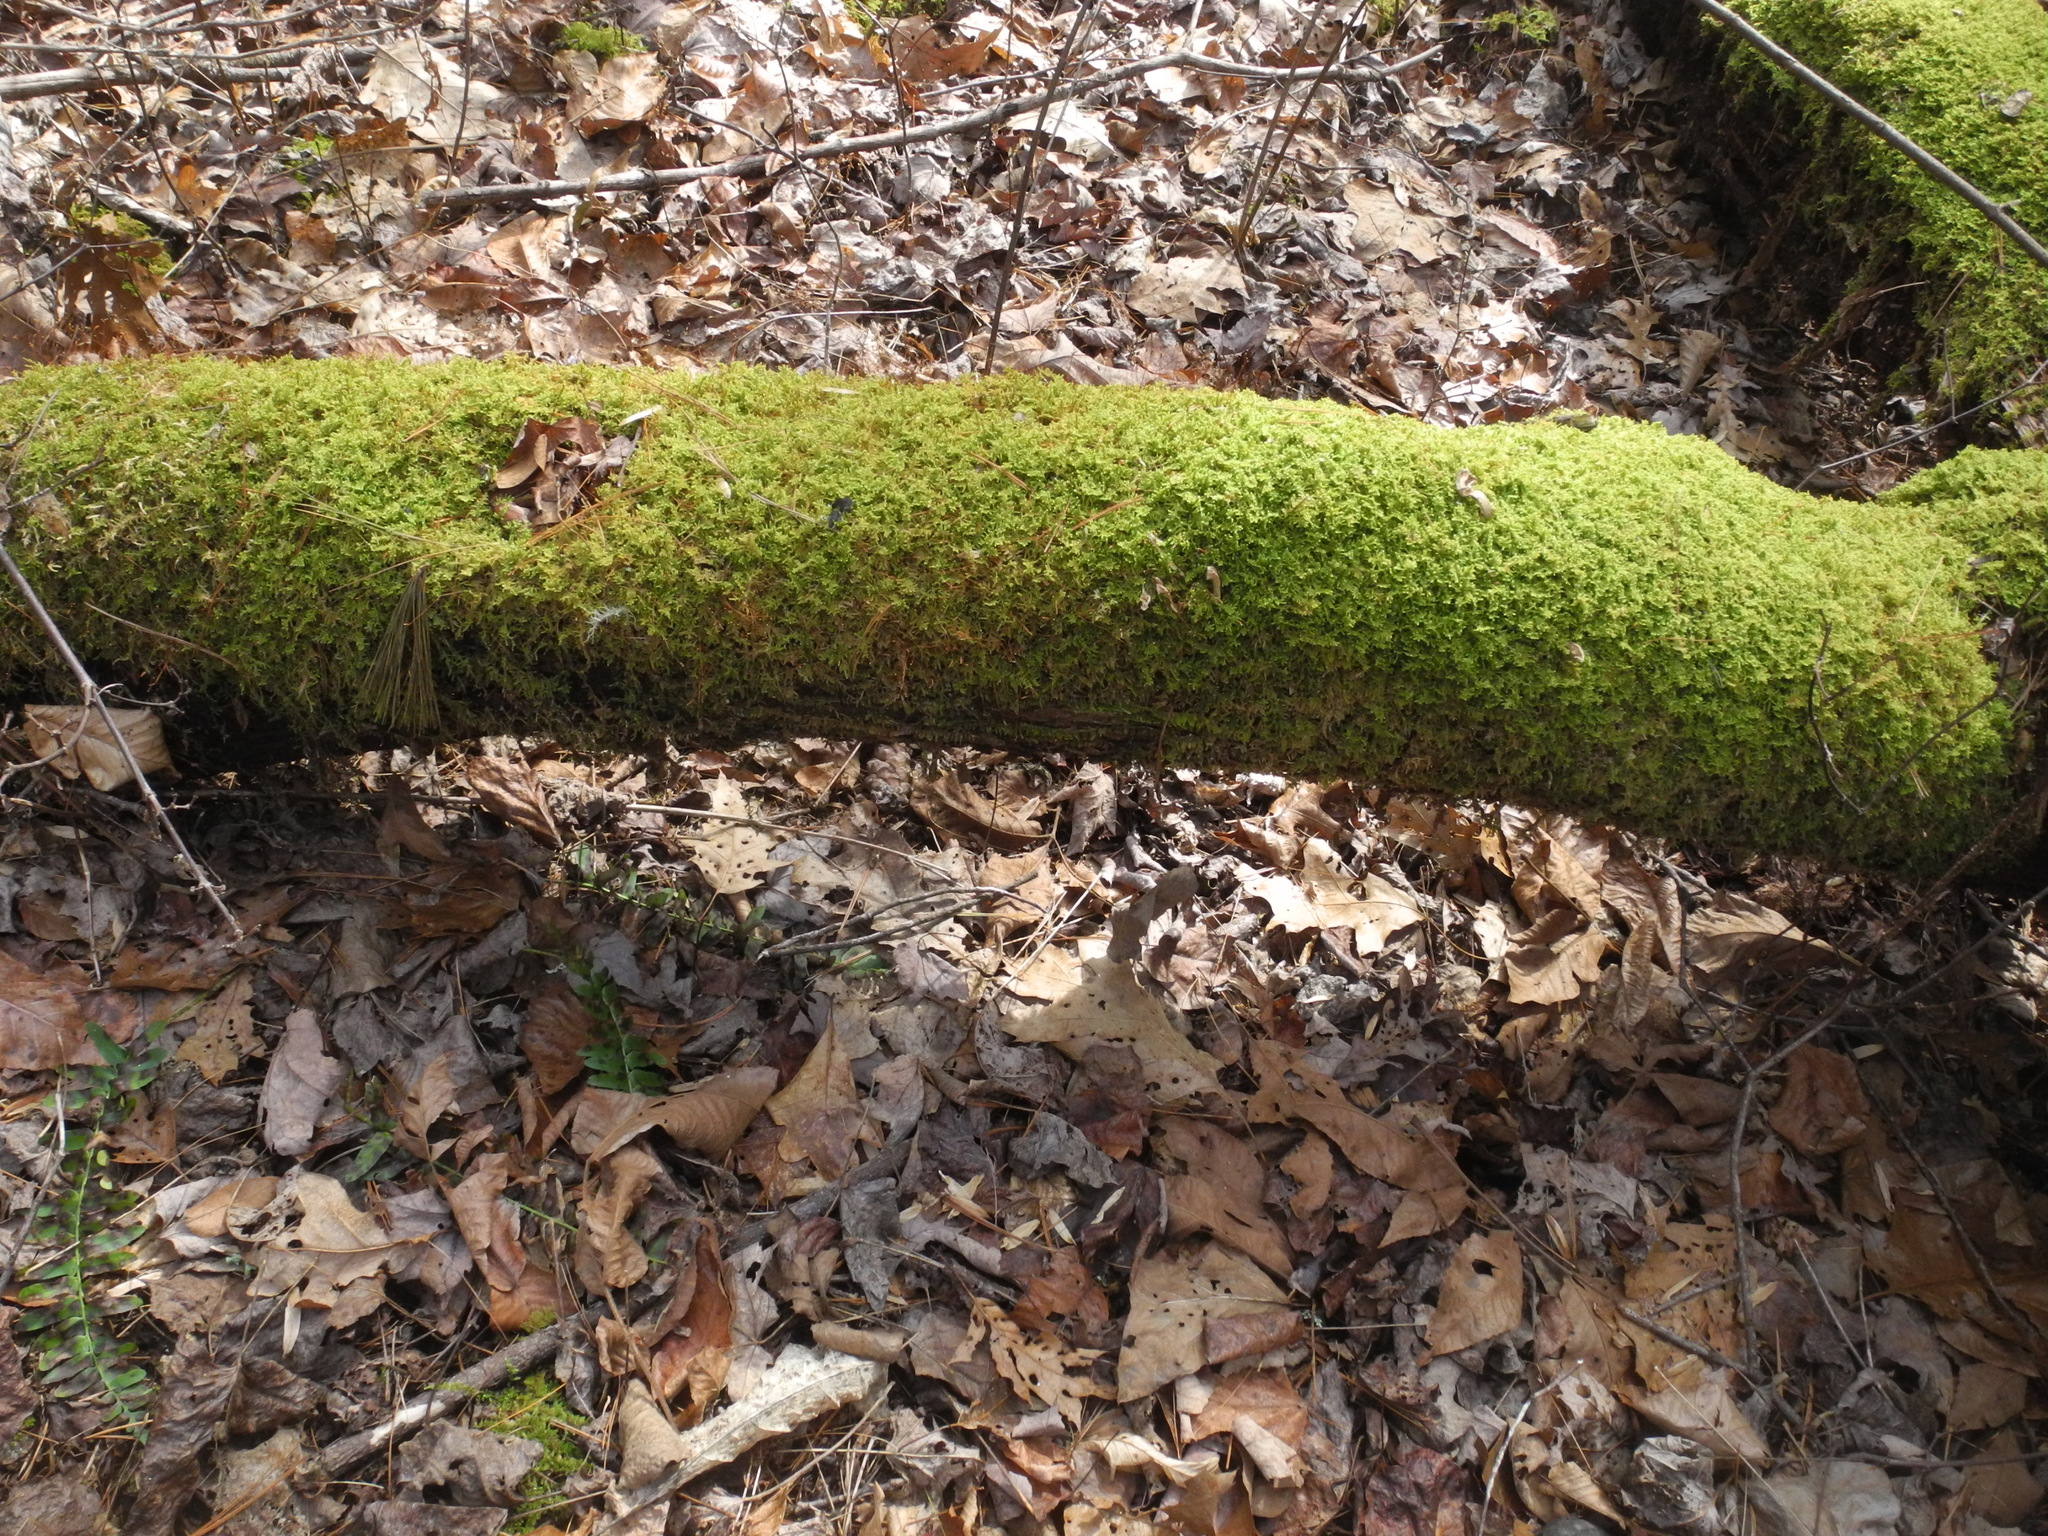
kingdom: Plantae
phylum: Bryophyta
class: Bryopsida
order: Hypnales
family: Callicladiaceae
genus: Callicladium
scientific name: Callicladium imponens
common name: Brocade moss
